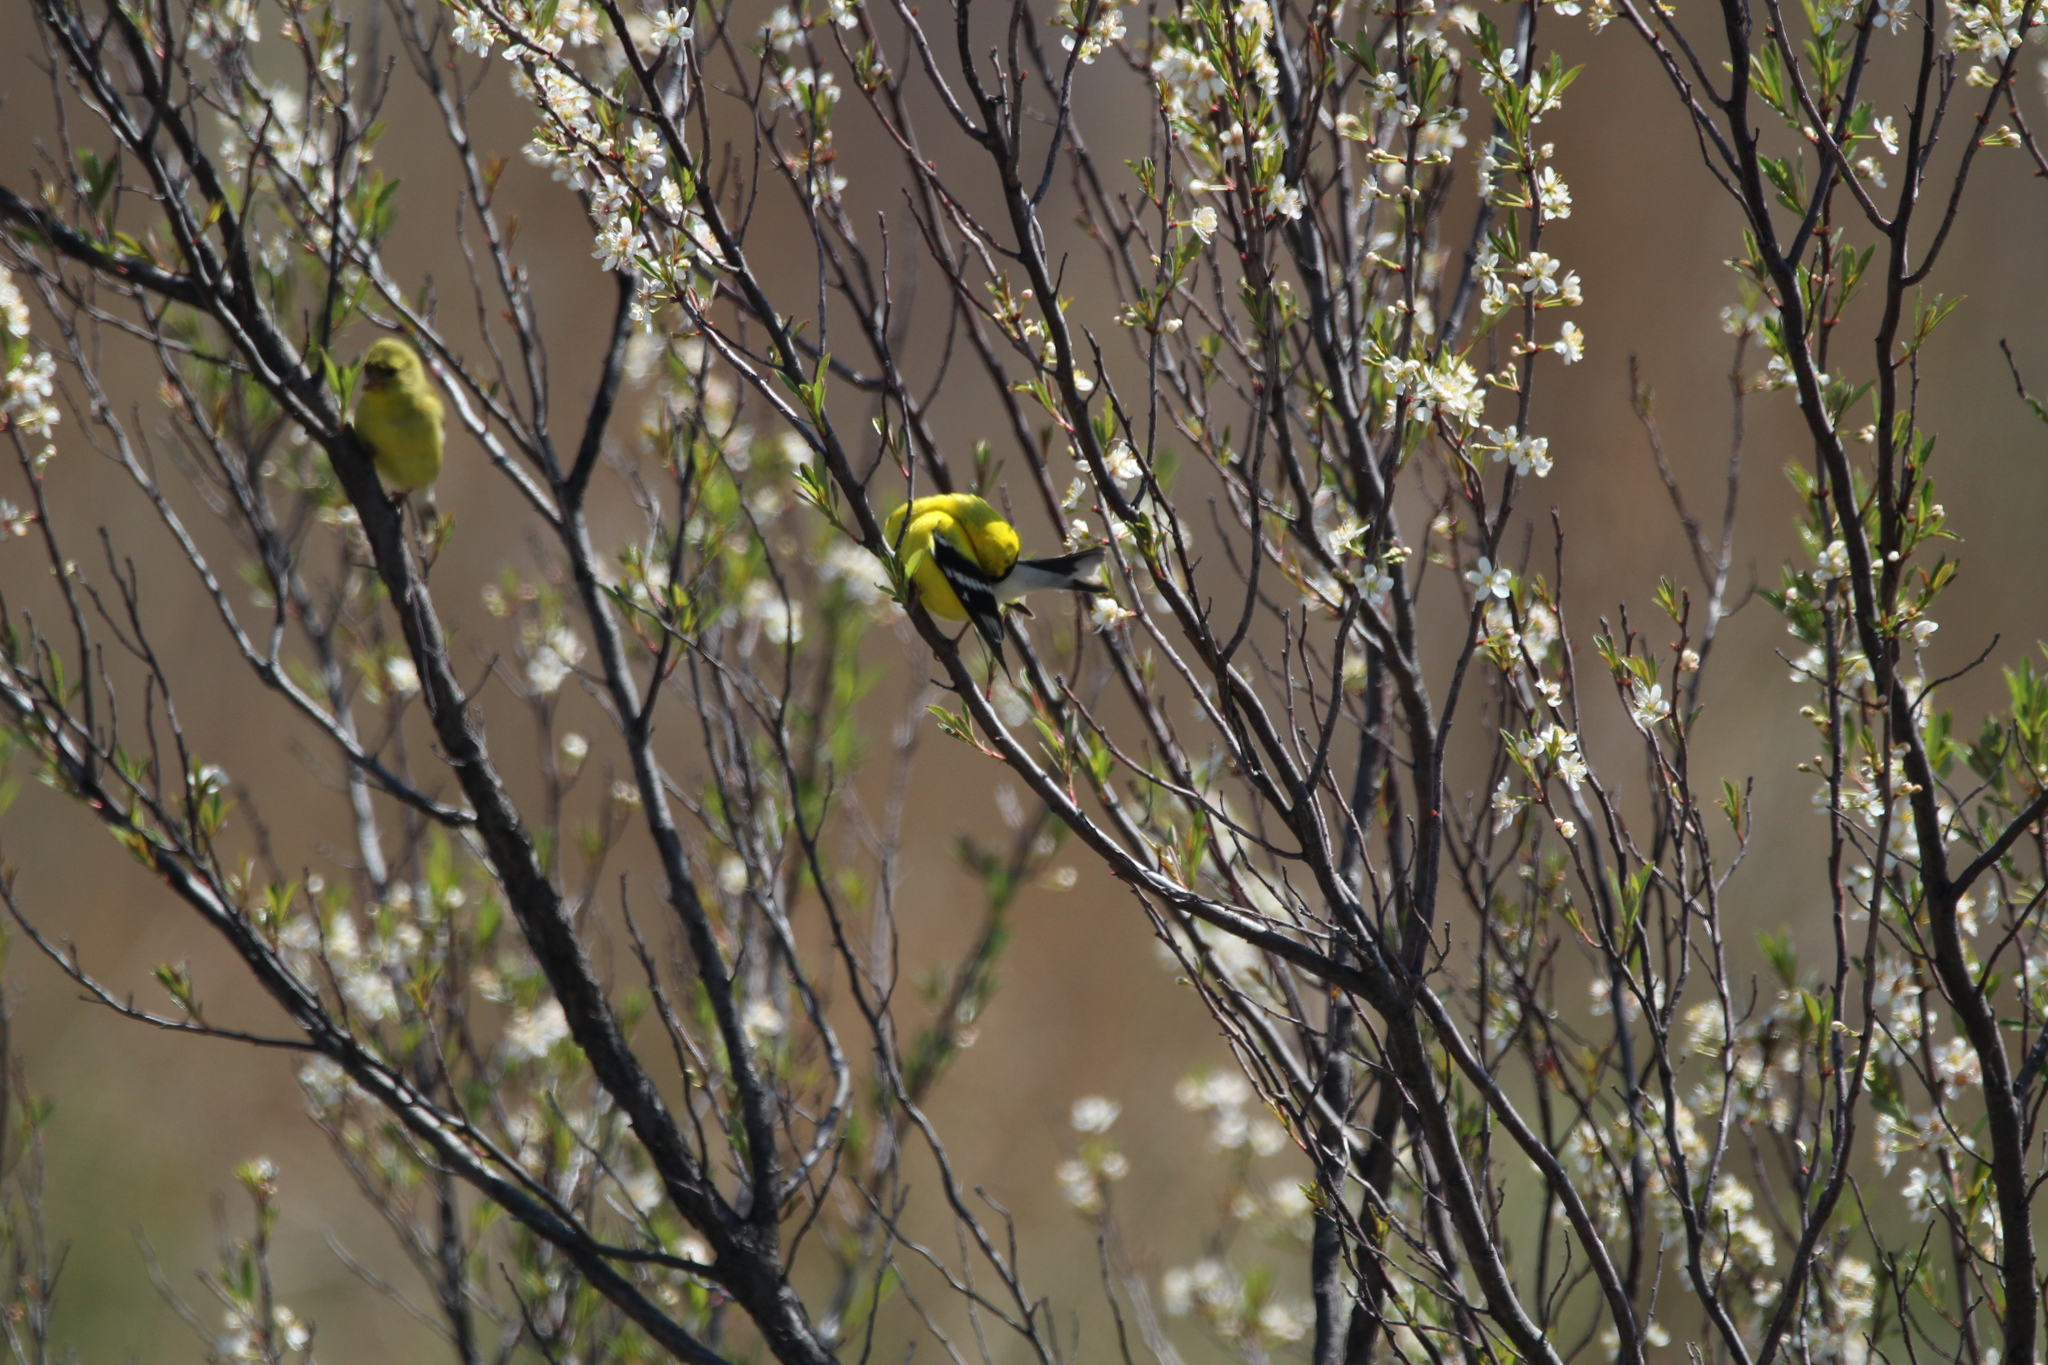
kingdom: Animalia
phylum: Chordata
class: Aves
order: Passeriformes
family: Fringillidae
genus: Spinus
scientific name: Spinus tristis
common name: American goldfinch
